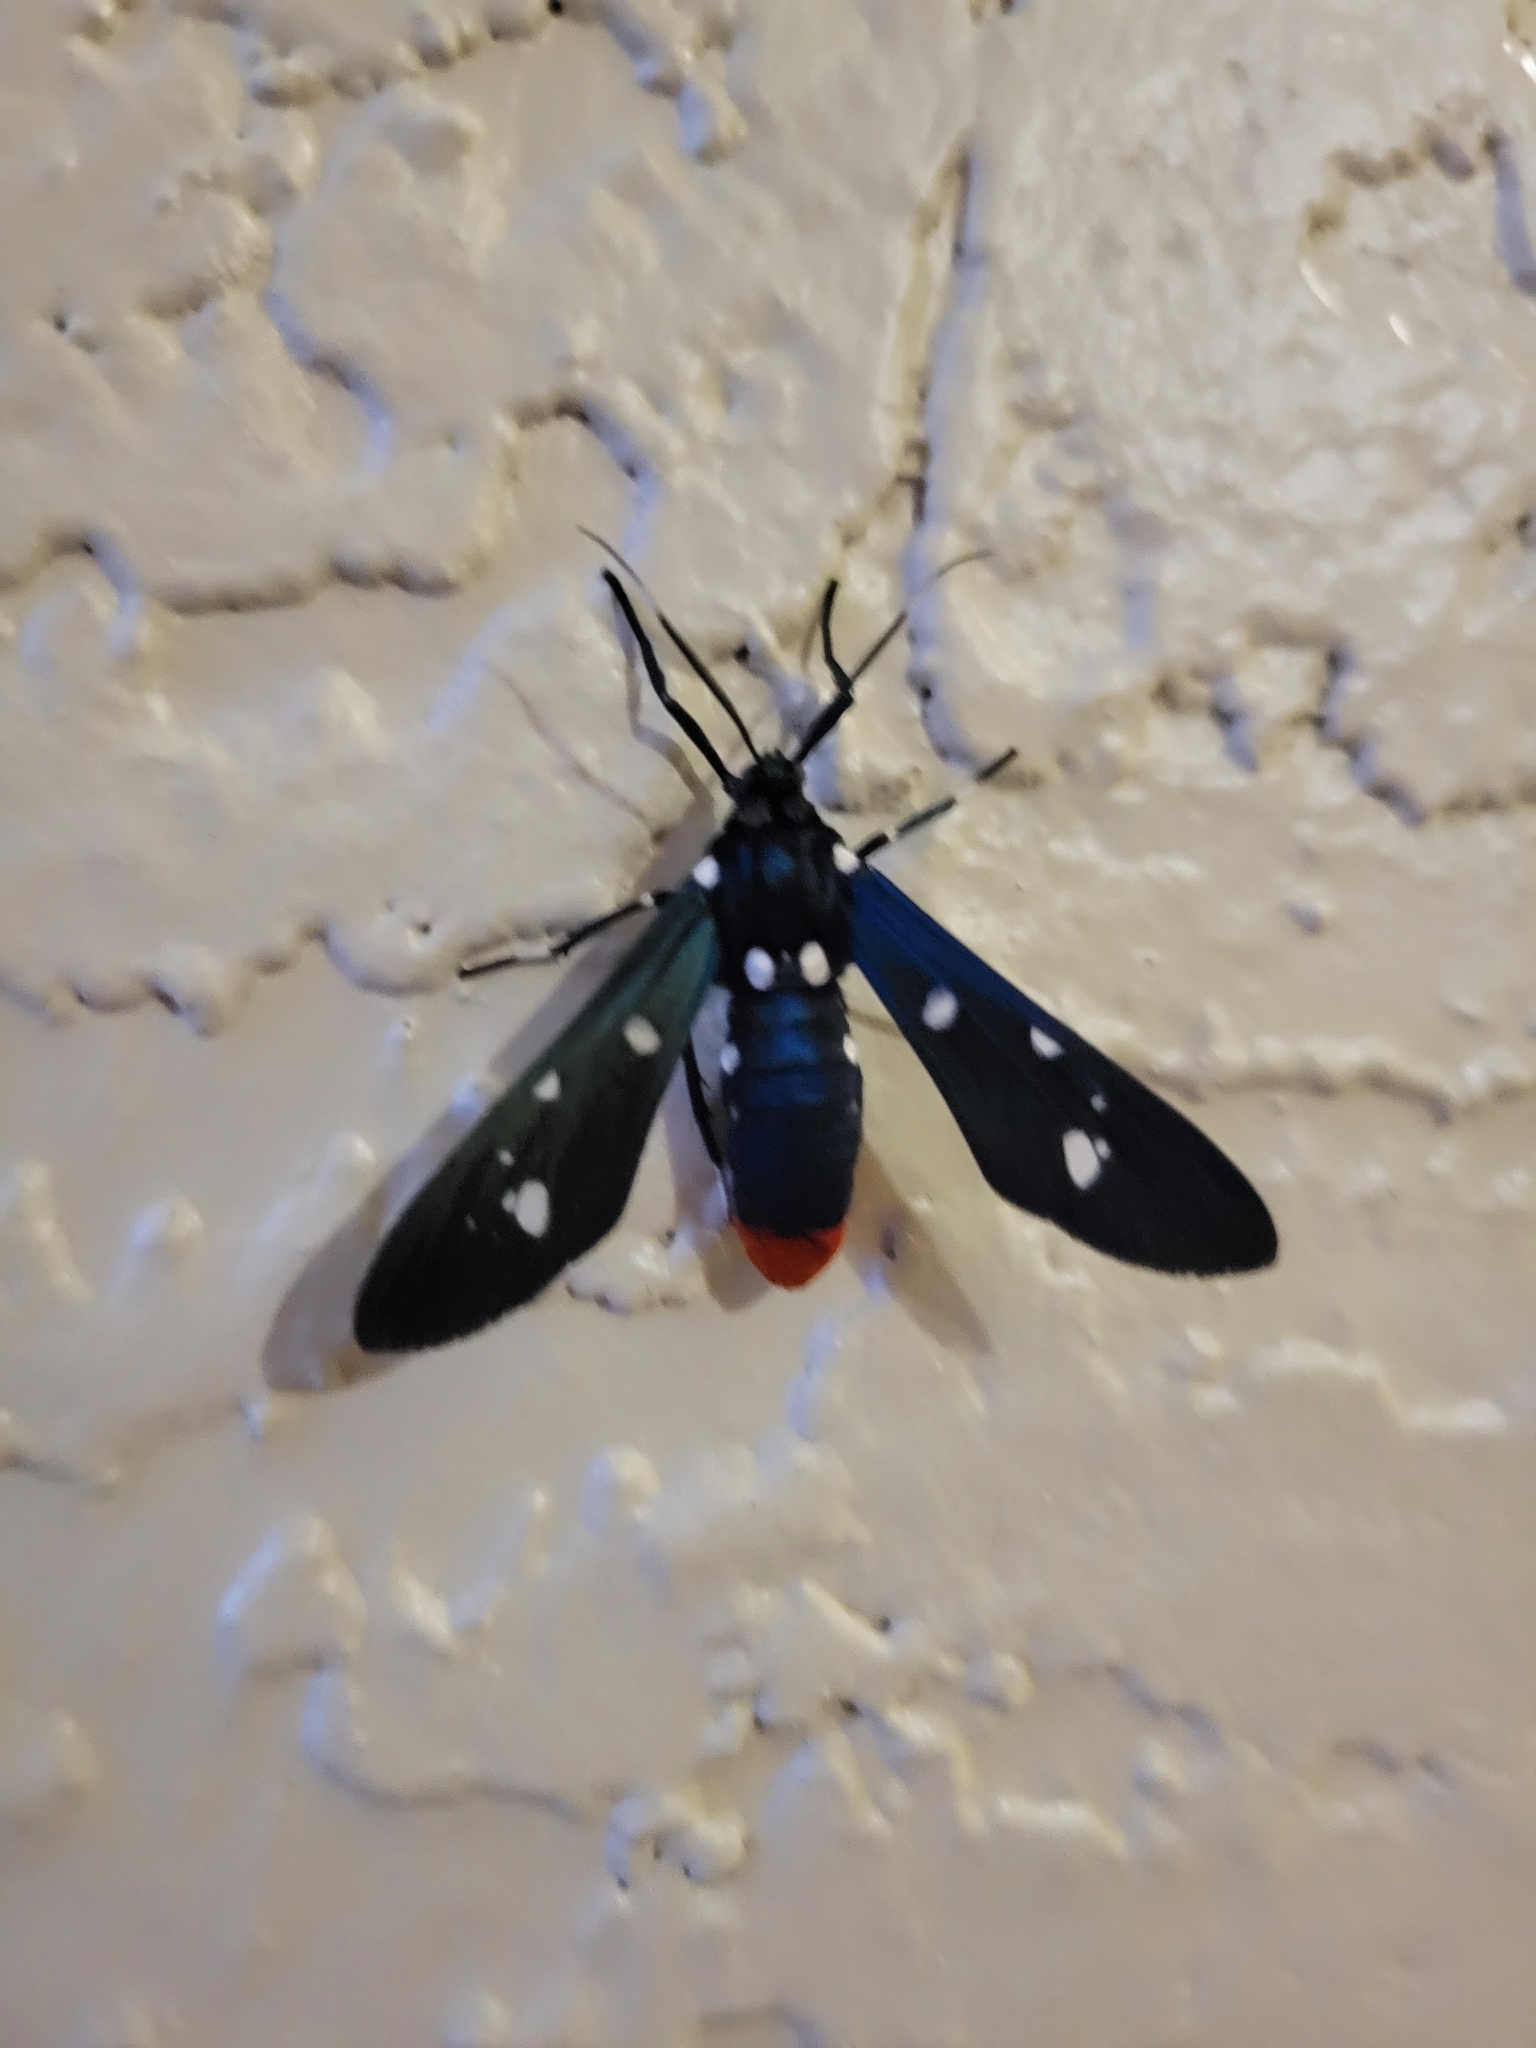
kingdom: Animalia
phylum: Arthropoda
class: Insecta
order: Lepidoptera
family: Erebidae
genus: Syntomeida
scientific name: Syntomeida epilais
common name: Polka-dot wasp moth
